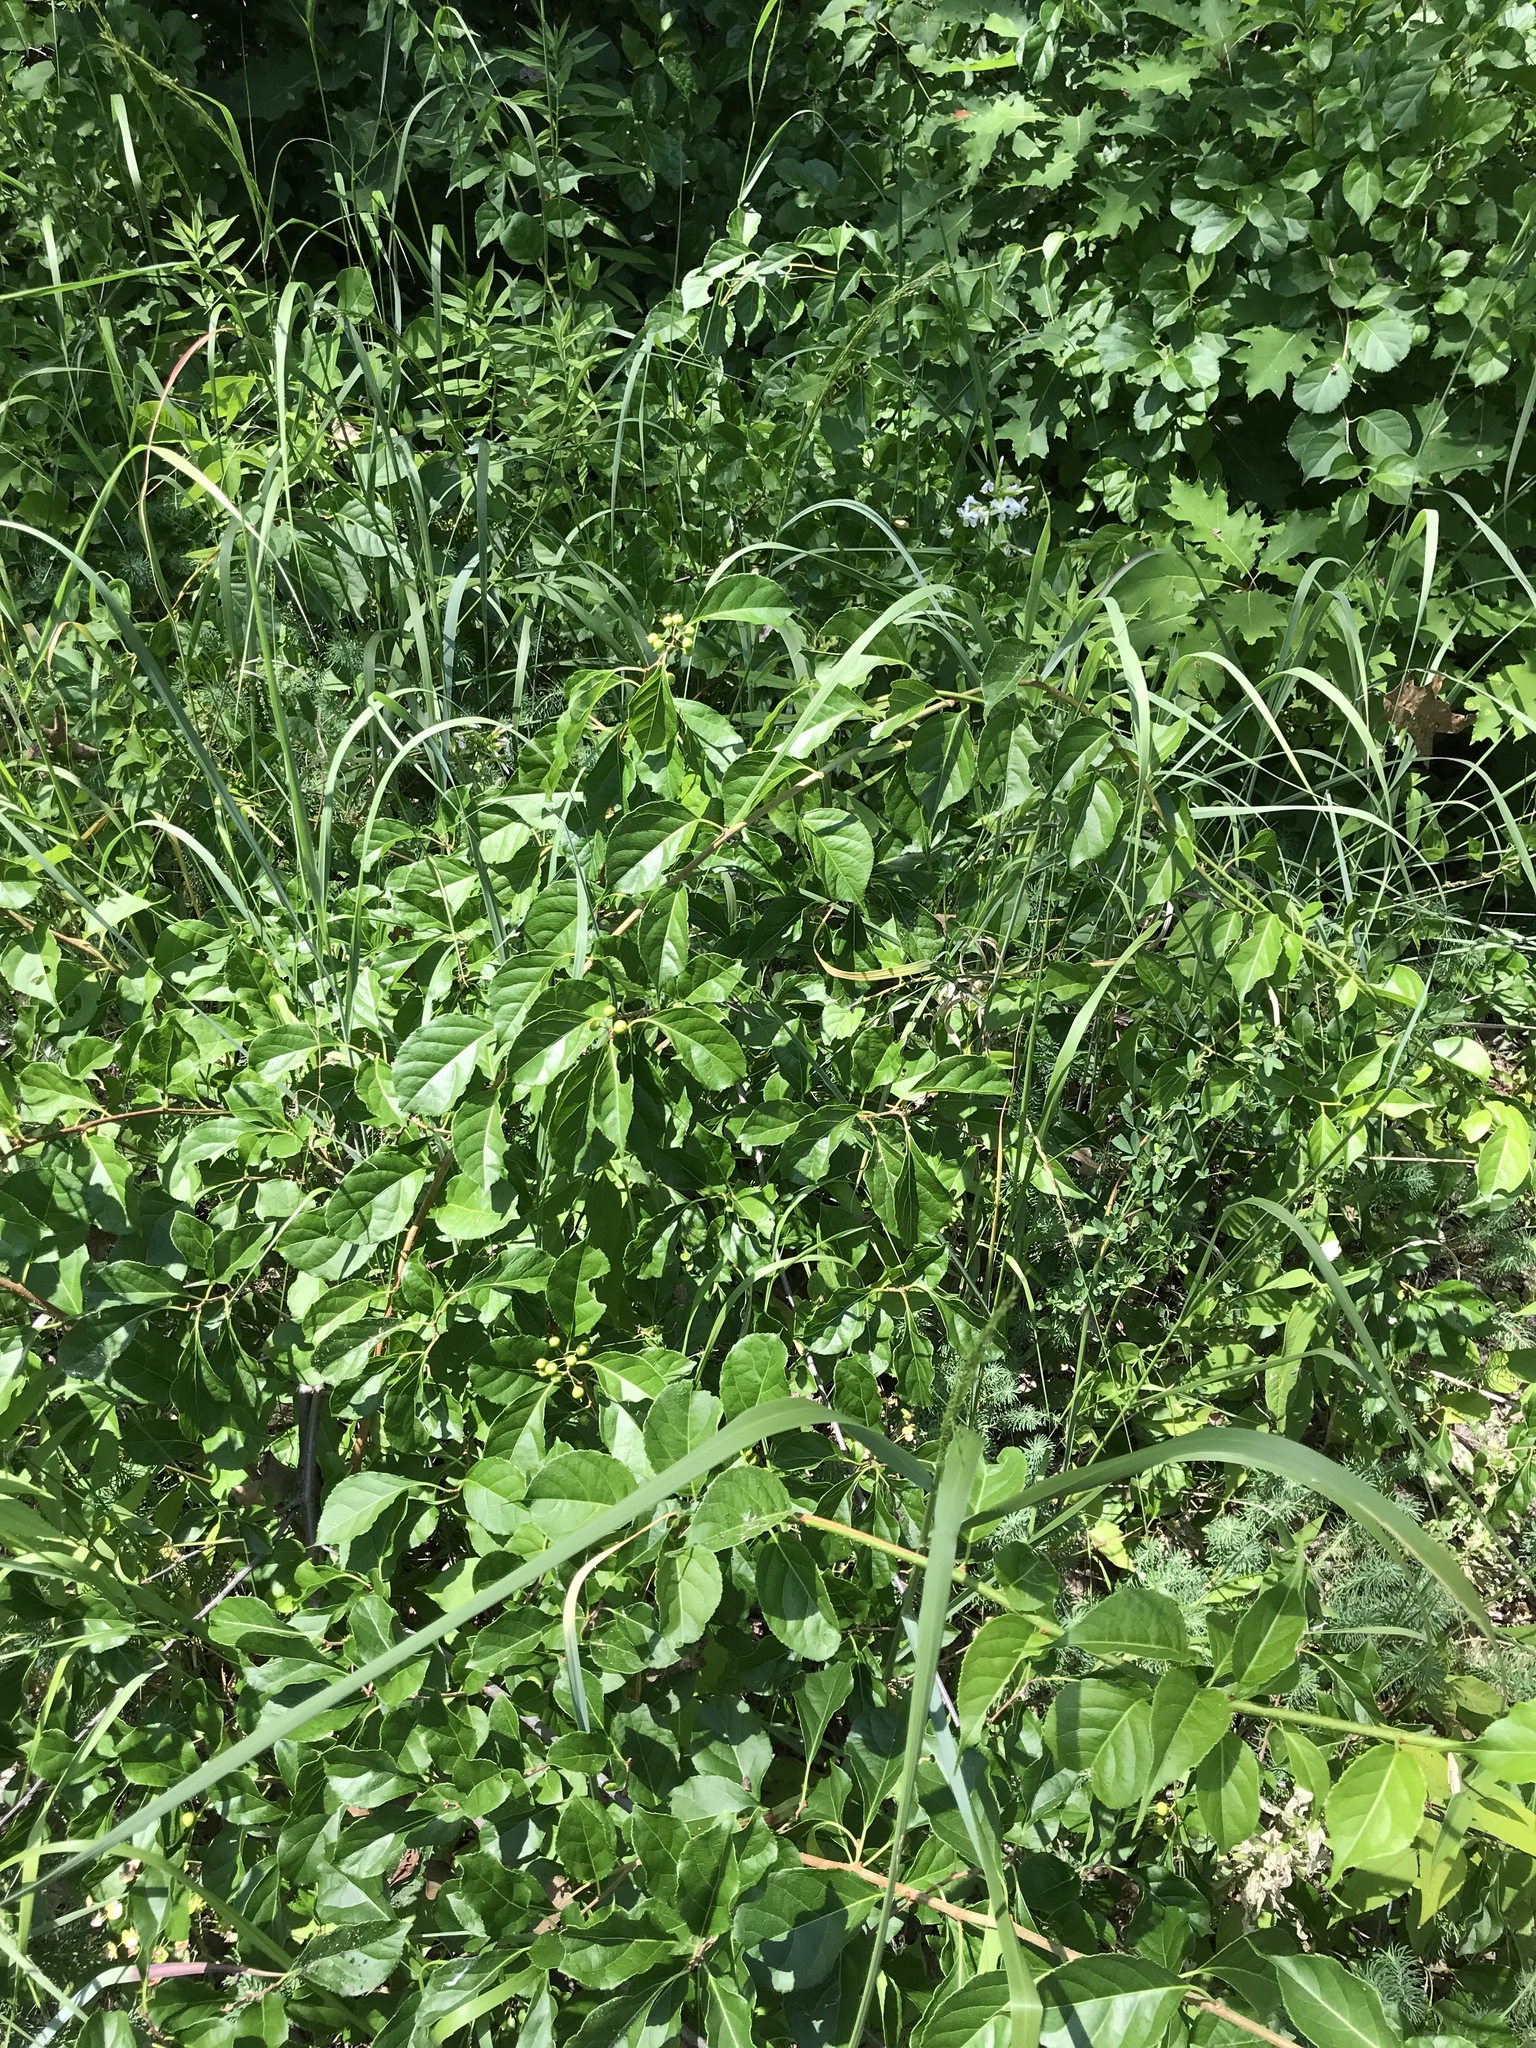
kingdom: Plantae
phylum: Tracheophyta
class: Magnoliopsida
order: Celastrales
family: Celastraceae
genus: Celastrus
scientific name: Celastrus orbiculatus
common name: Oriental bittersweet
